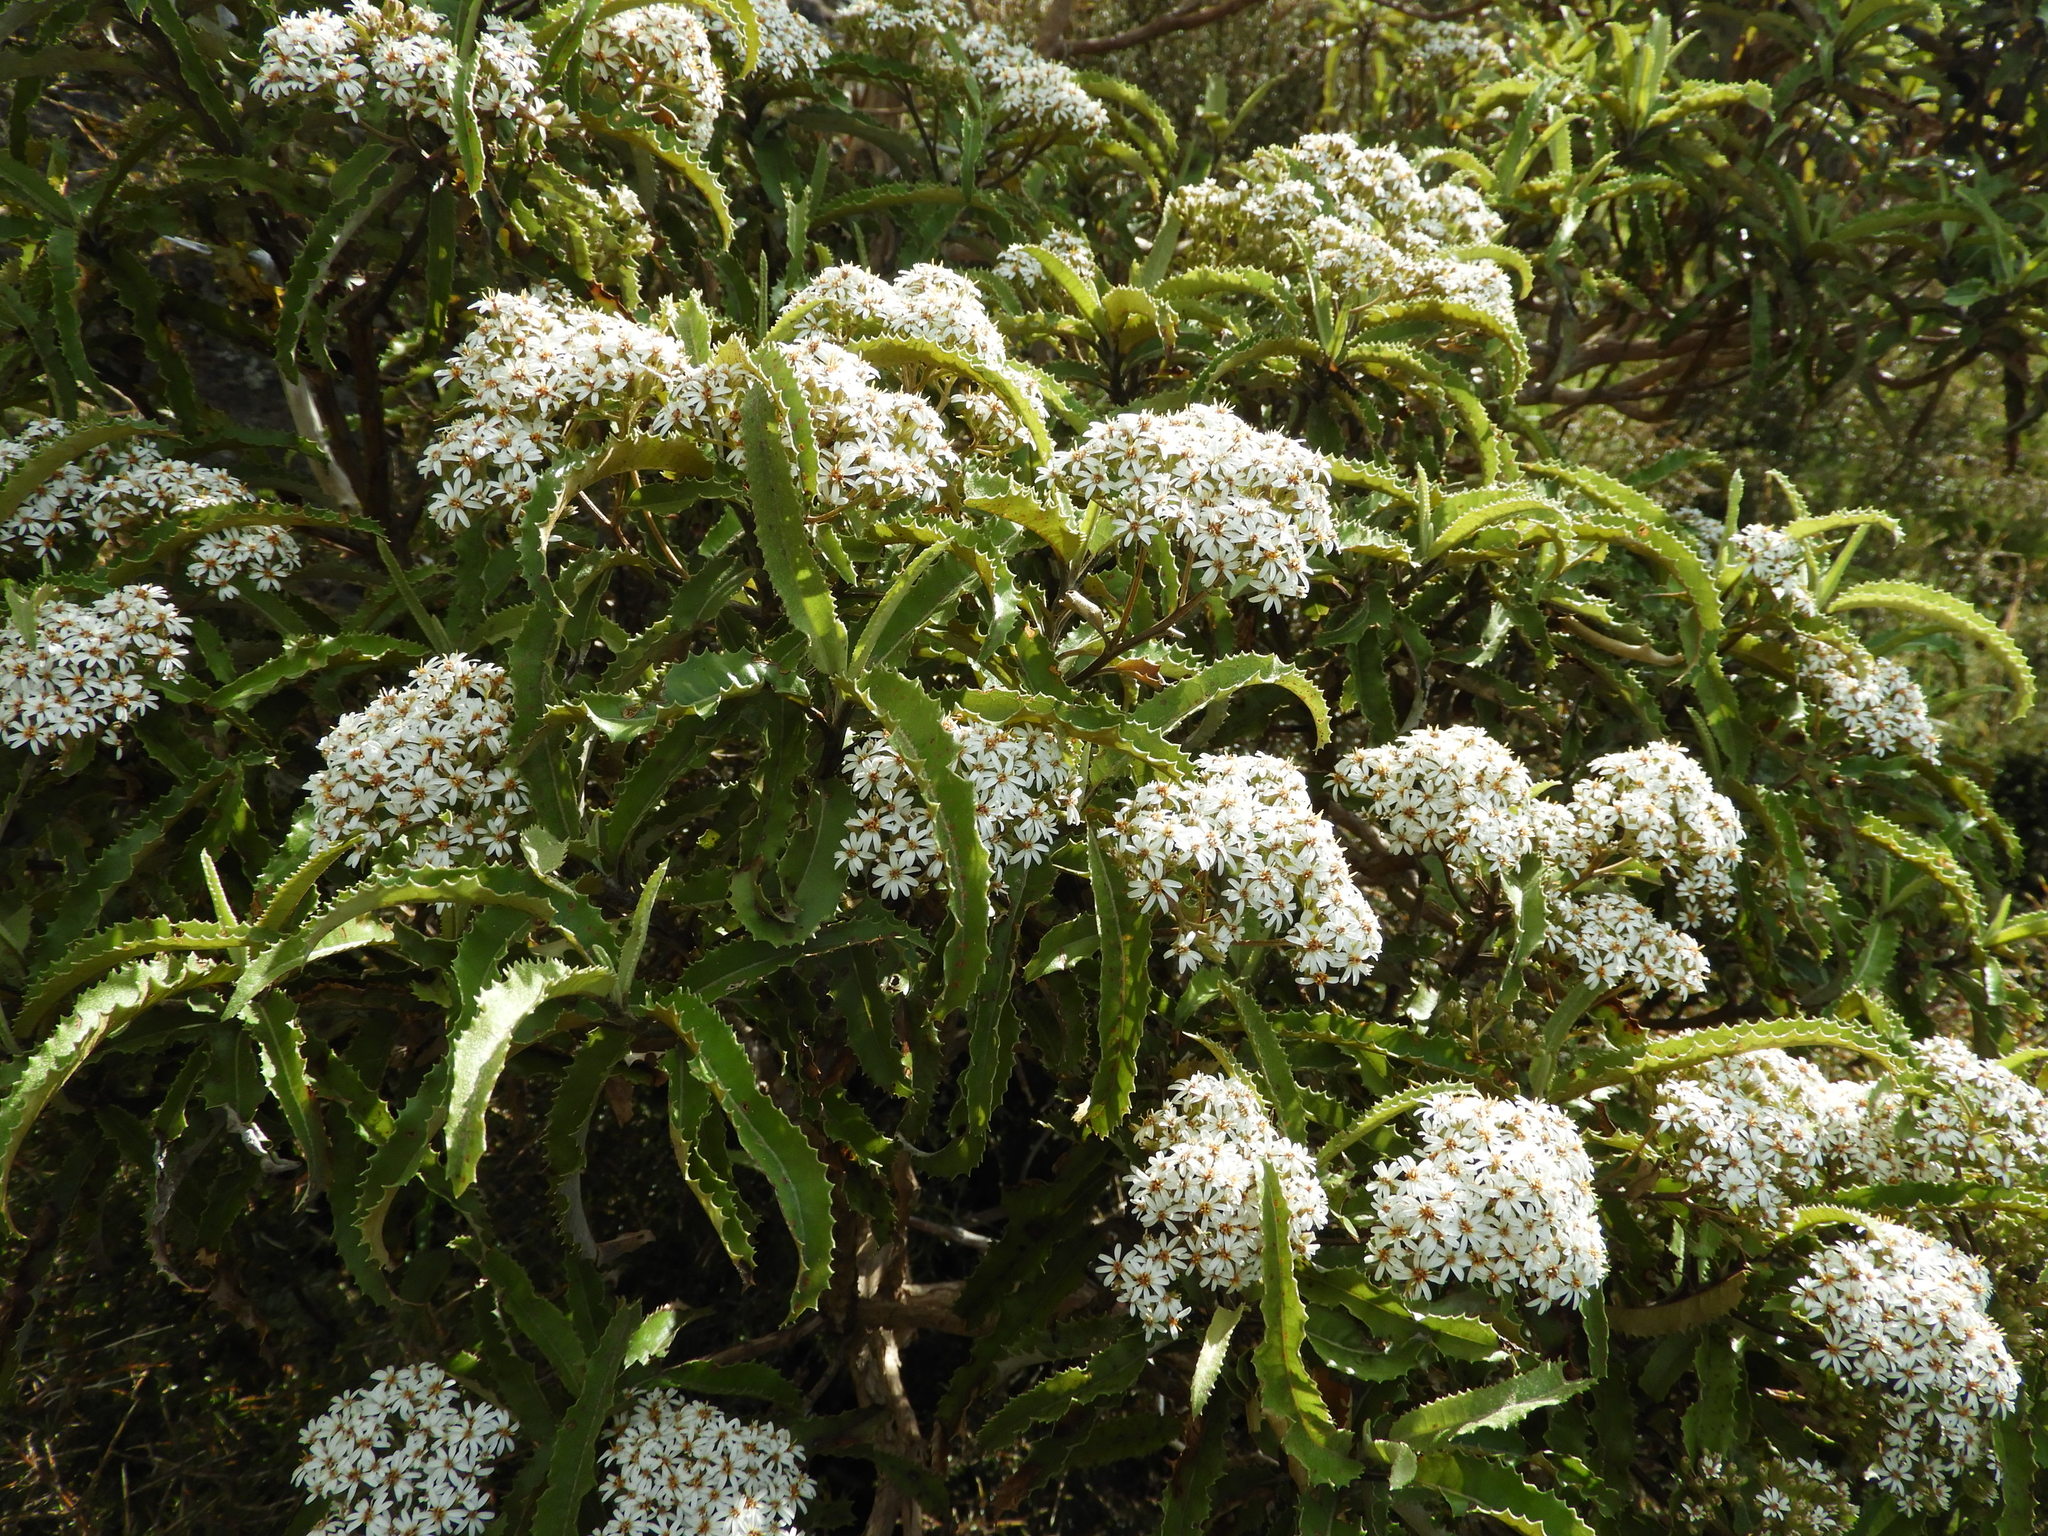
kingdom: Plantae
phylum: Tracheophyta
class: Magnoliopsida
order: Asterales
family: Asteraceae
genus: Olearia
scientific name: Olearia ilicifolia
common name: Maori-holly
